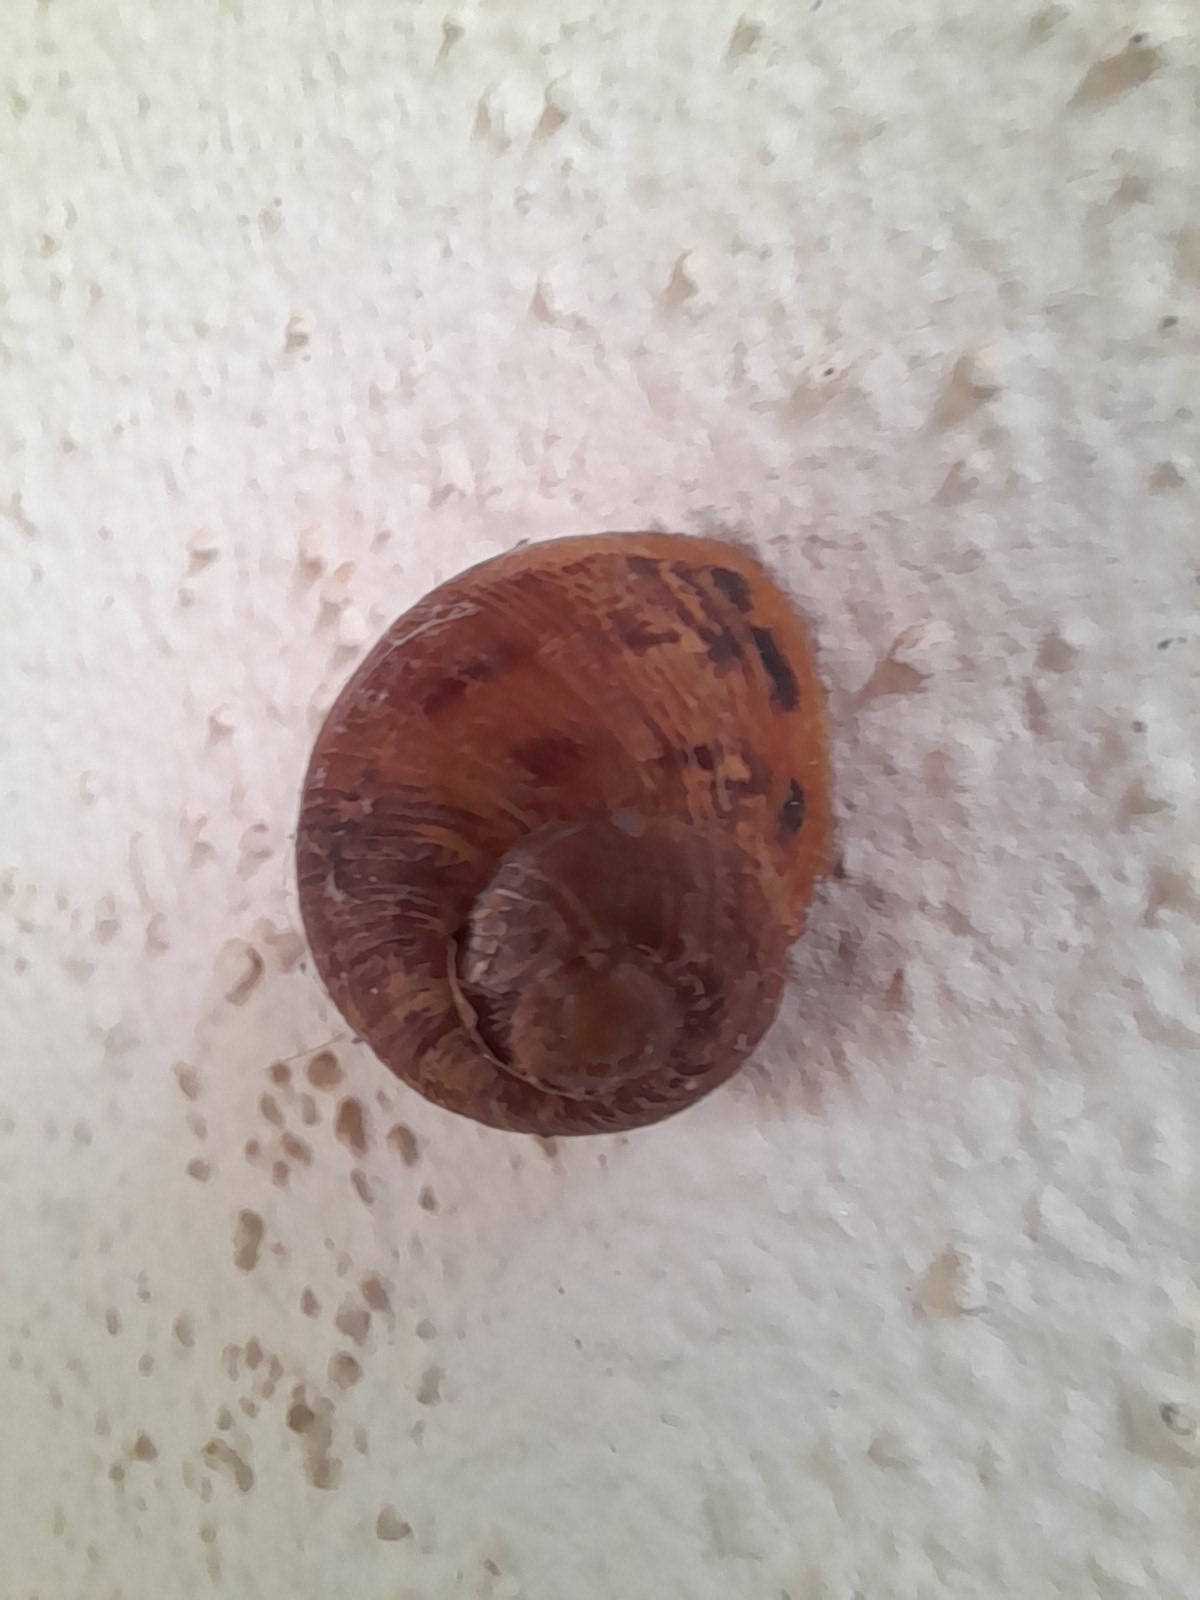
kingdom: Animalia
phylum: Mollusca
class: Gastropoda
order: Stylommatophora
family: Helicidae
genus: Cornu
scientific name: Cornu aspersum
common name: Brown garden snail
